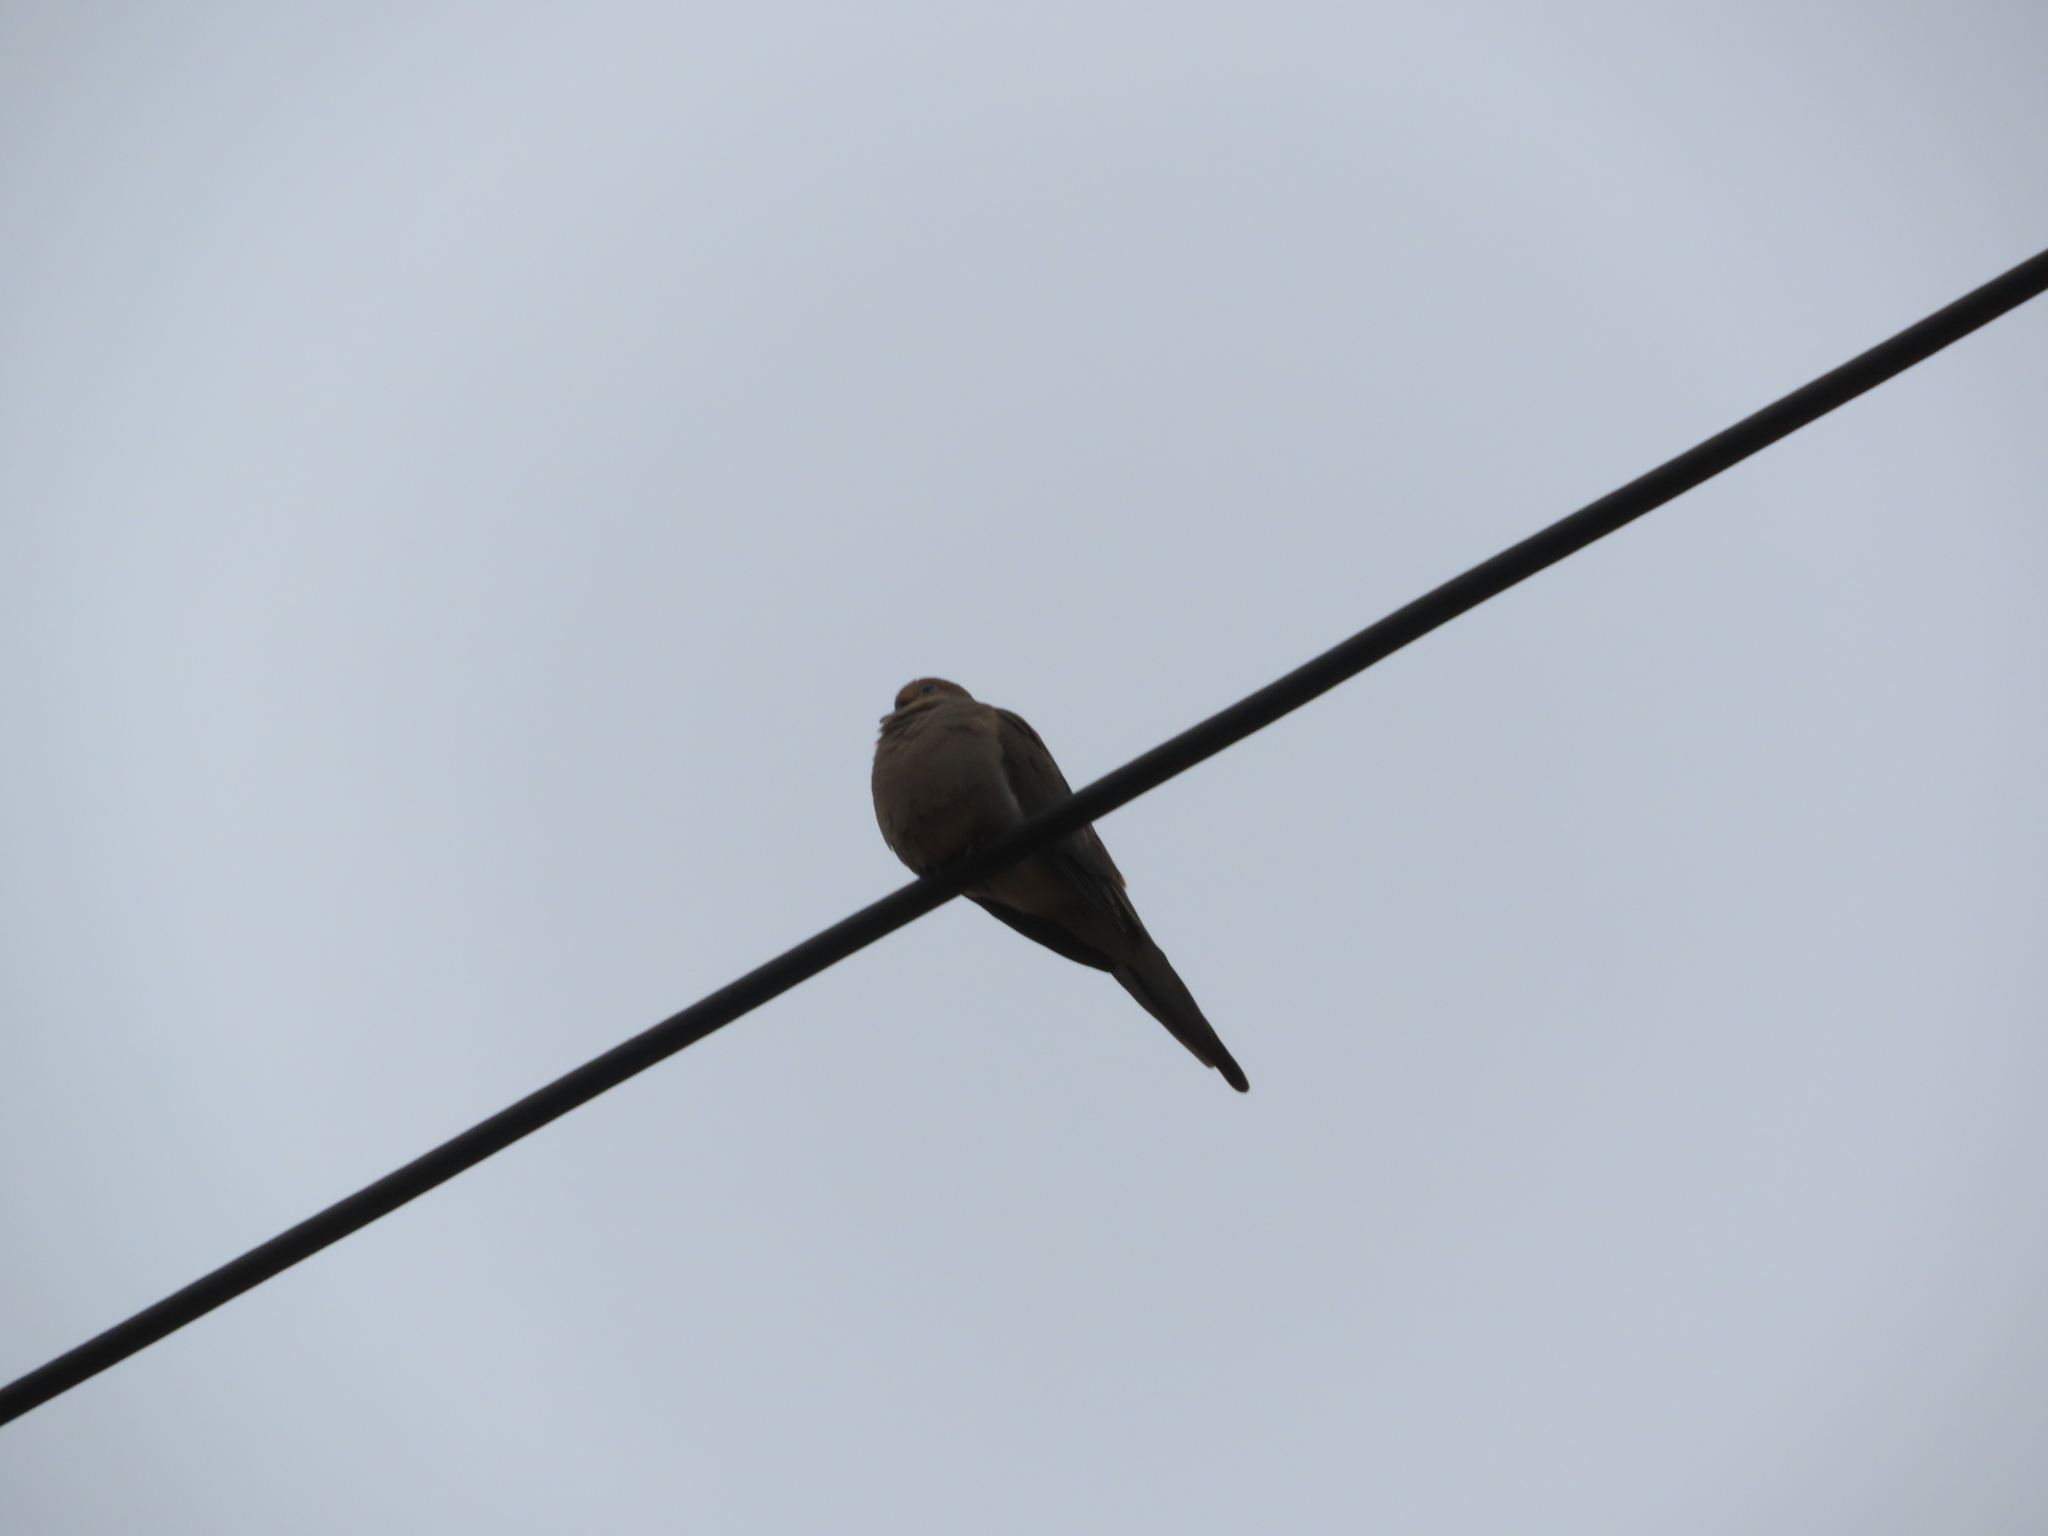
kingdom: Animalia
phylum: Chordata
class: Aves
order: Columbiformes
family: Columbidae
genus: Zenaida
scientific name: Zenaida macroura
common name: Mourning dove
